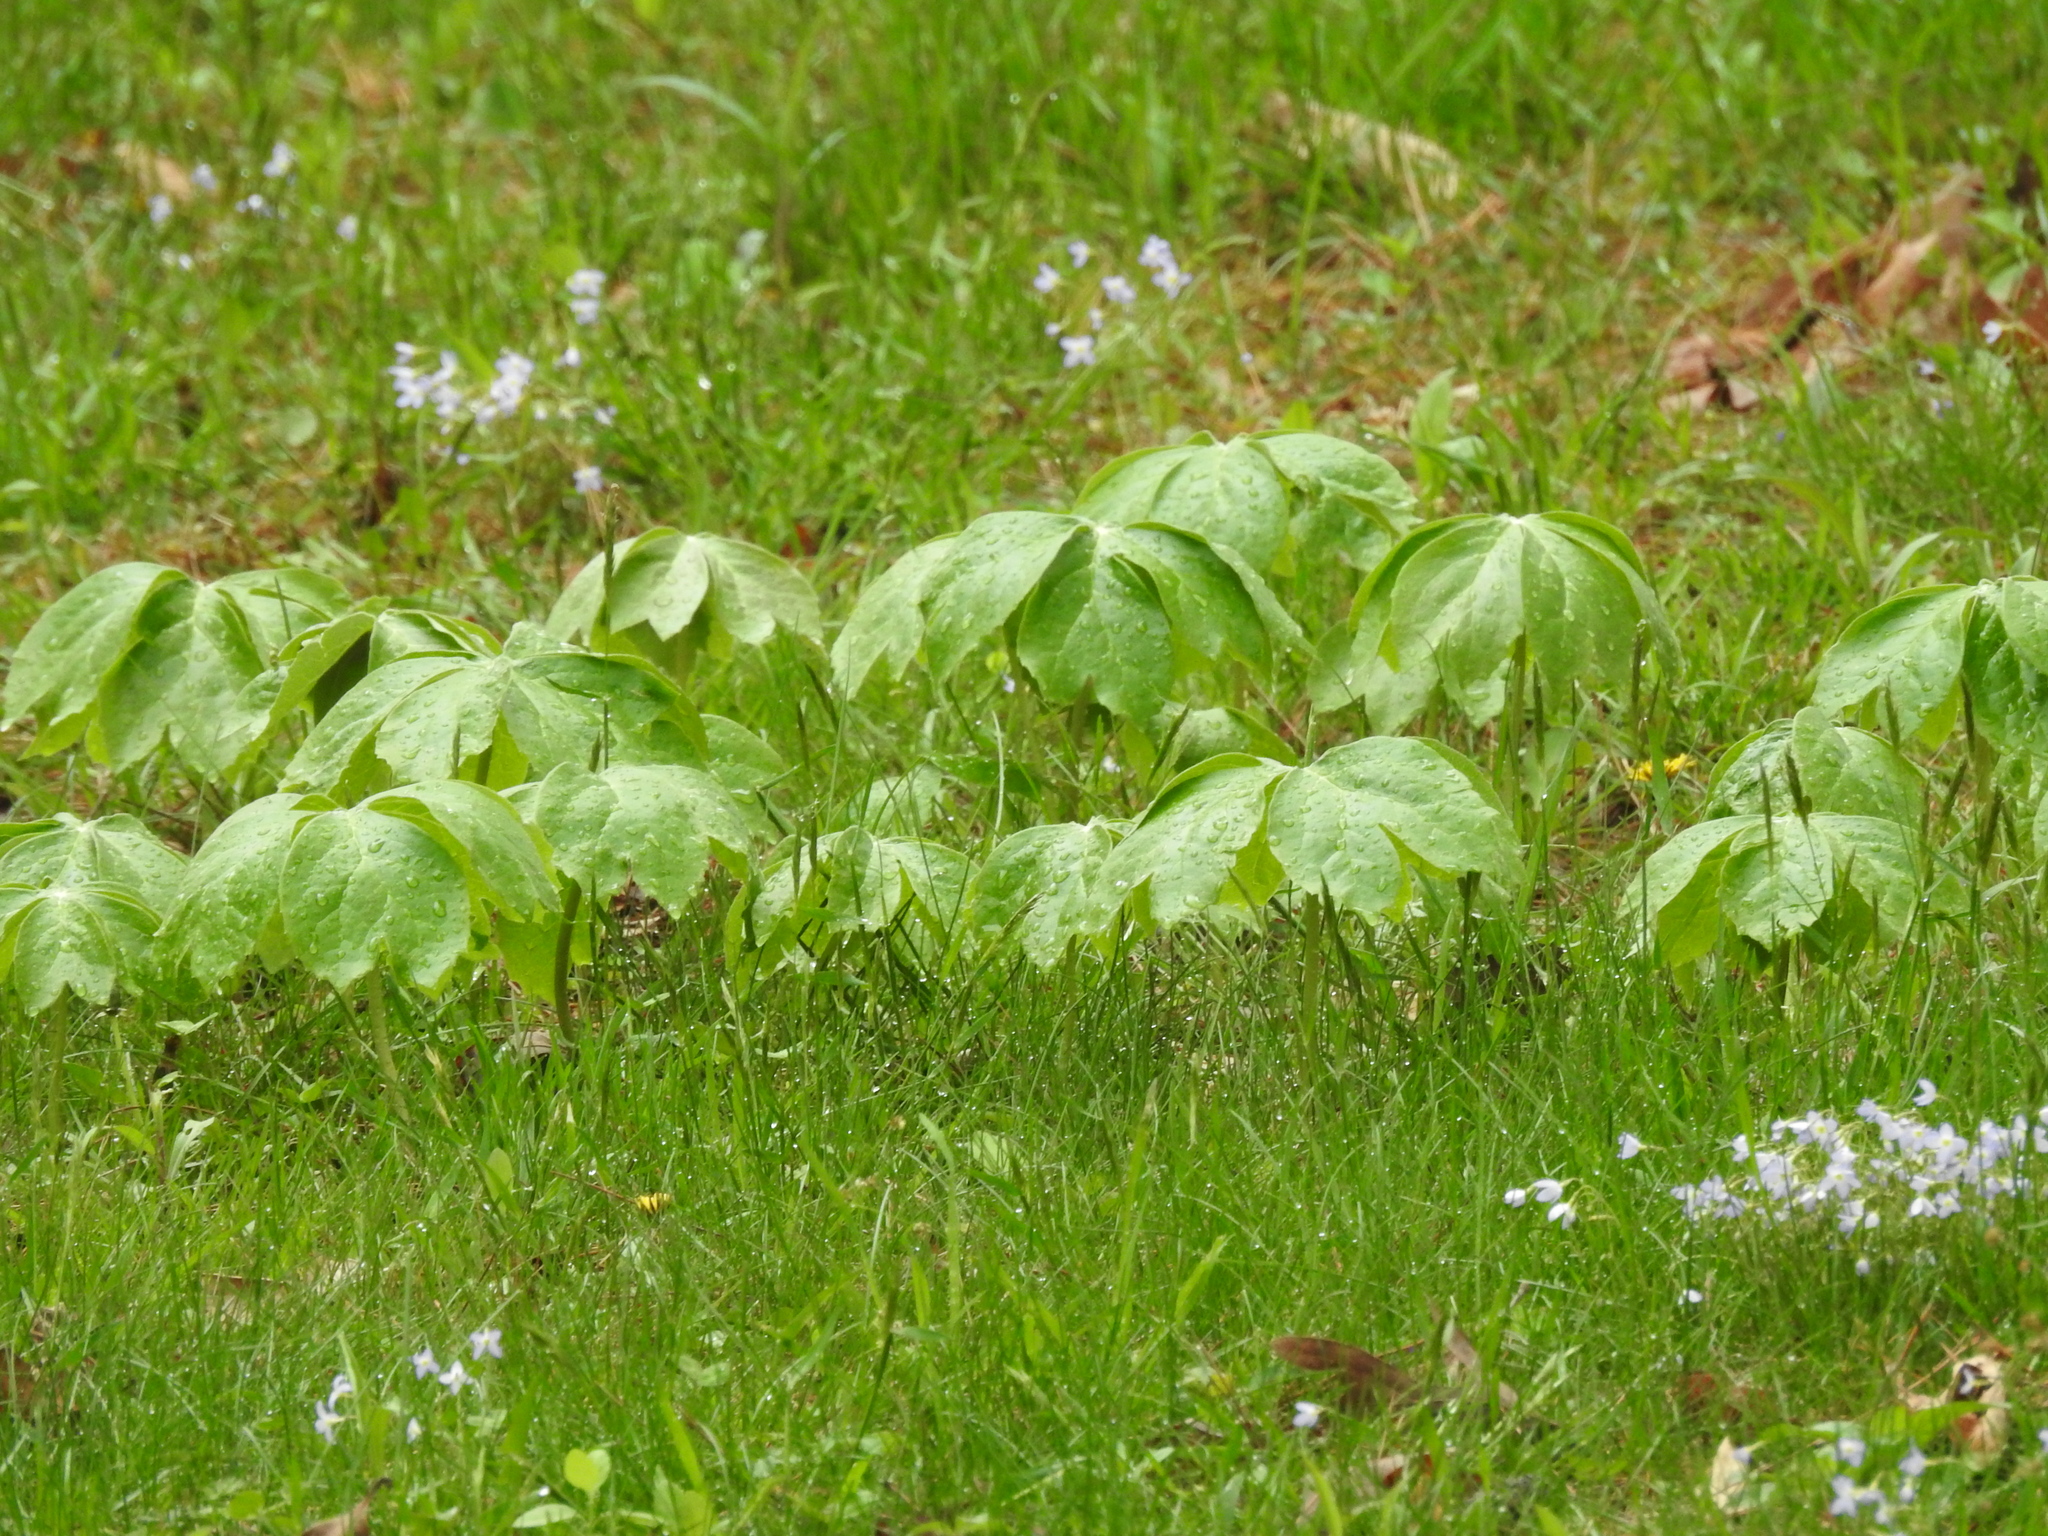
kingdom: Plantae
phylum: Tracheophyta
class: Magnoliopsida
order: Ranunculales
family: Berberidaceae
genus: Podophyllum
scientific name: Podophyllum peltatum
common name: Wild mandrake
